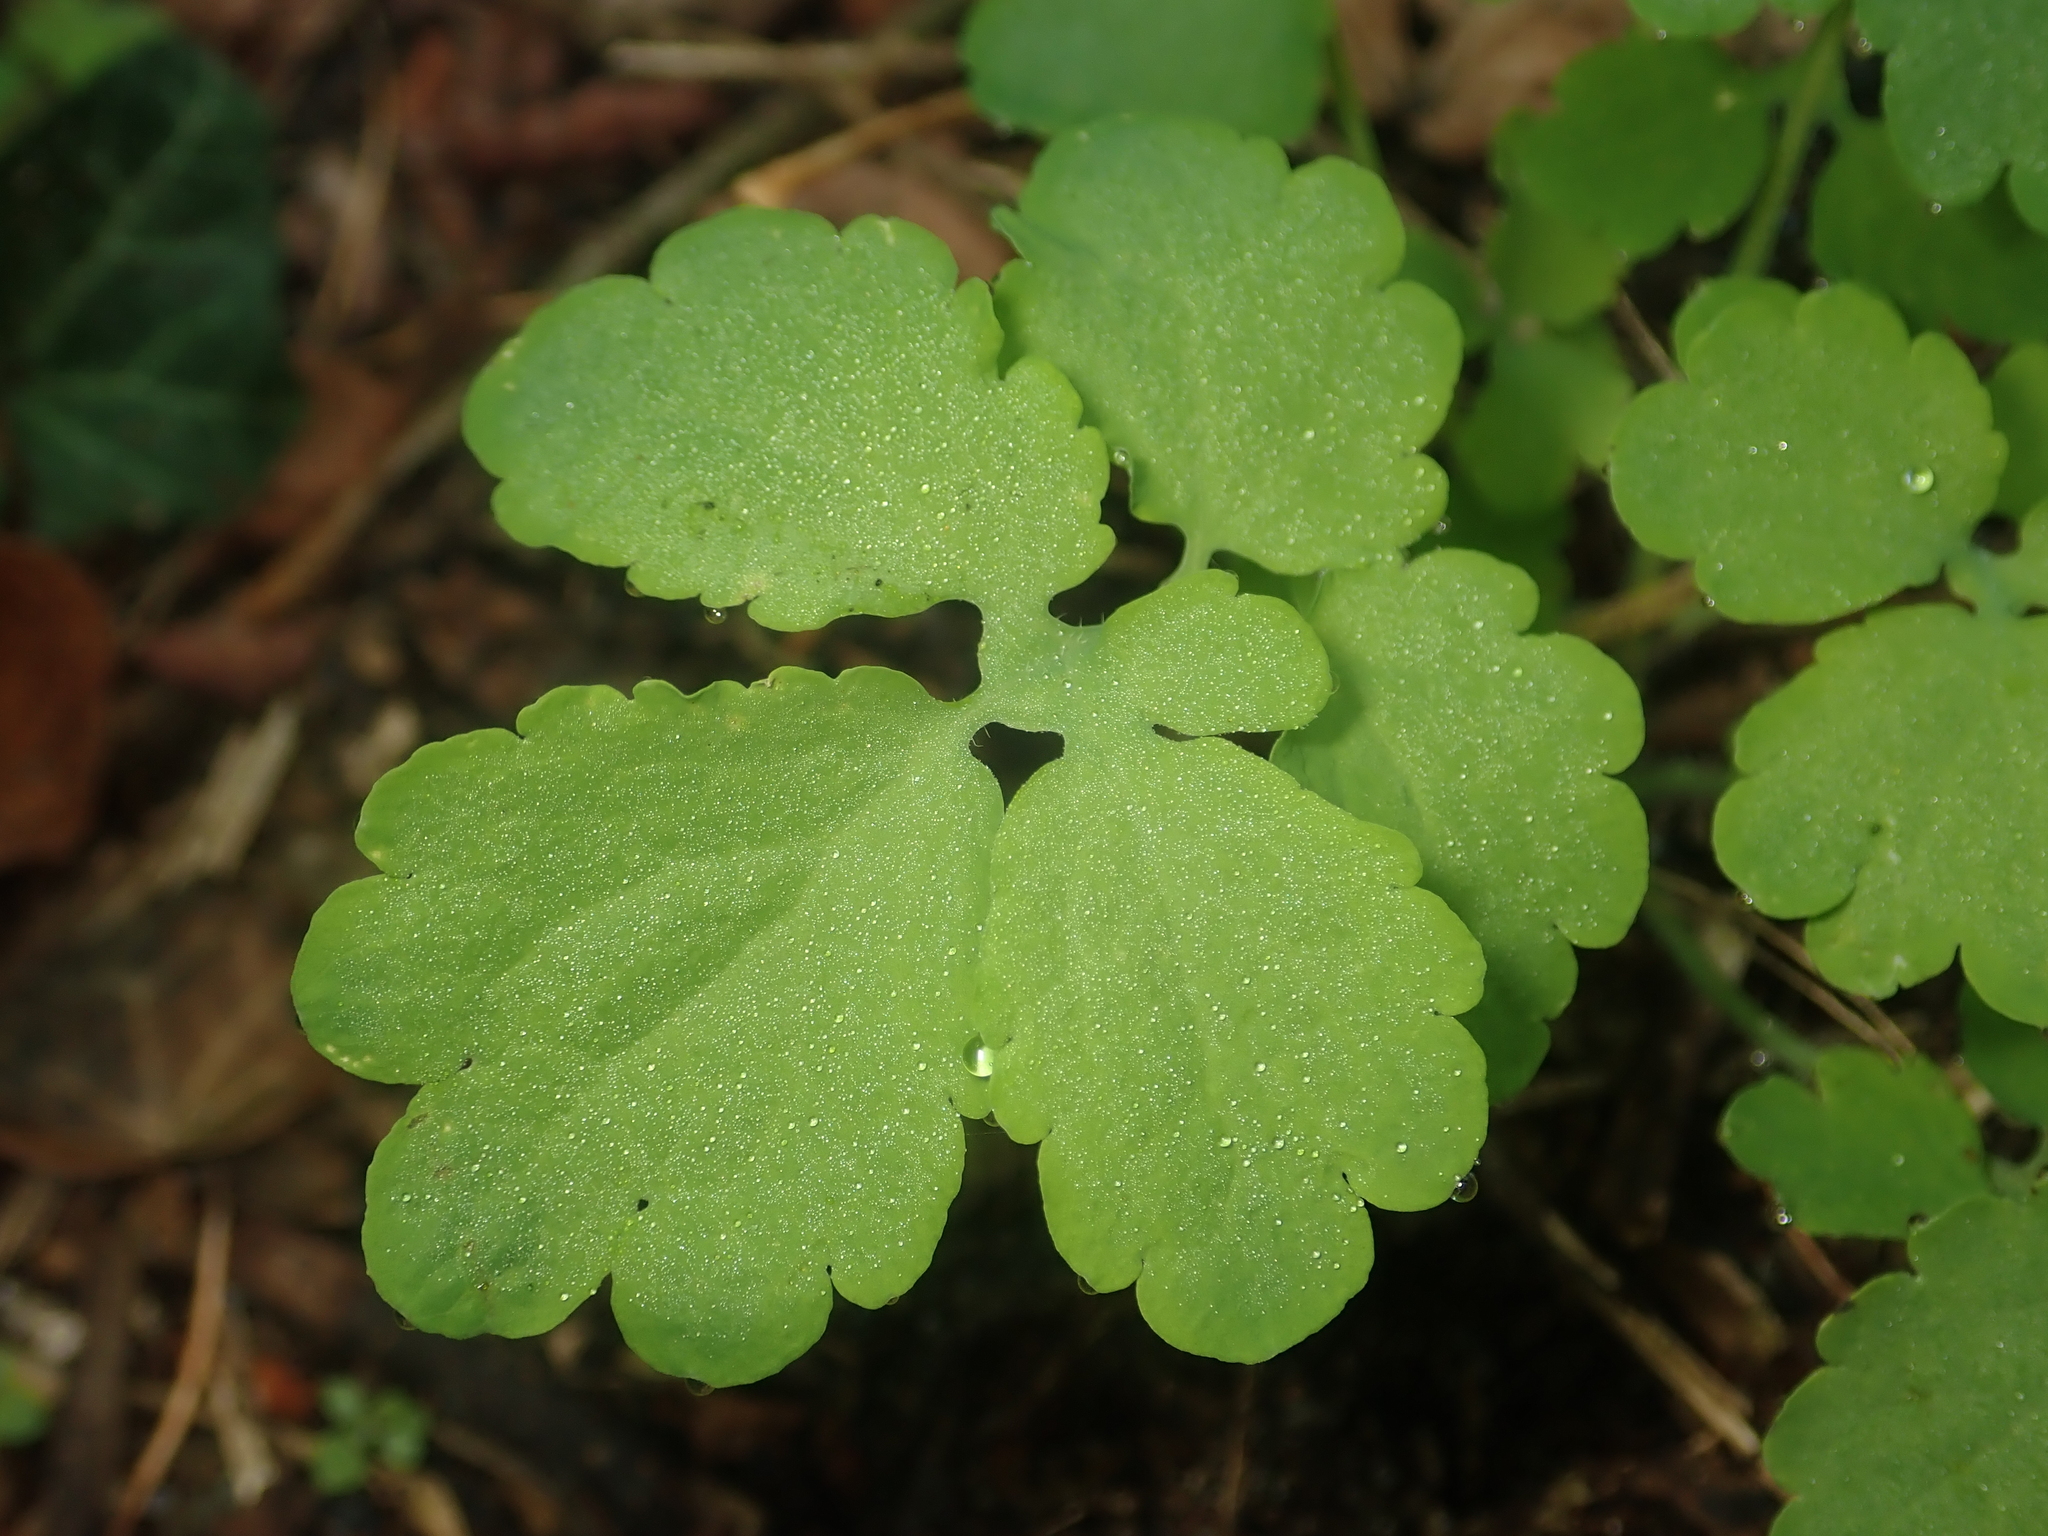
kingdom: Plantae
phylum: Tracheophyta
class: Magnoliopsida
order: Ranunculales
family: Papaveraceae
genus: Chelidonium
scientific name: Chelidonium majus
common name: Greater celandine
